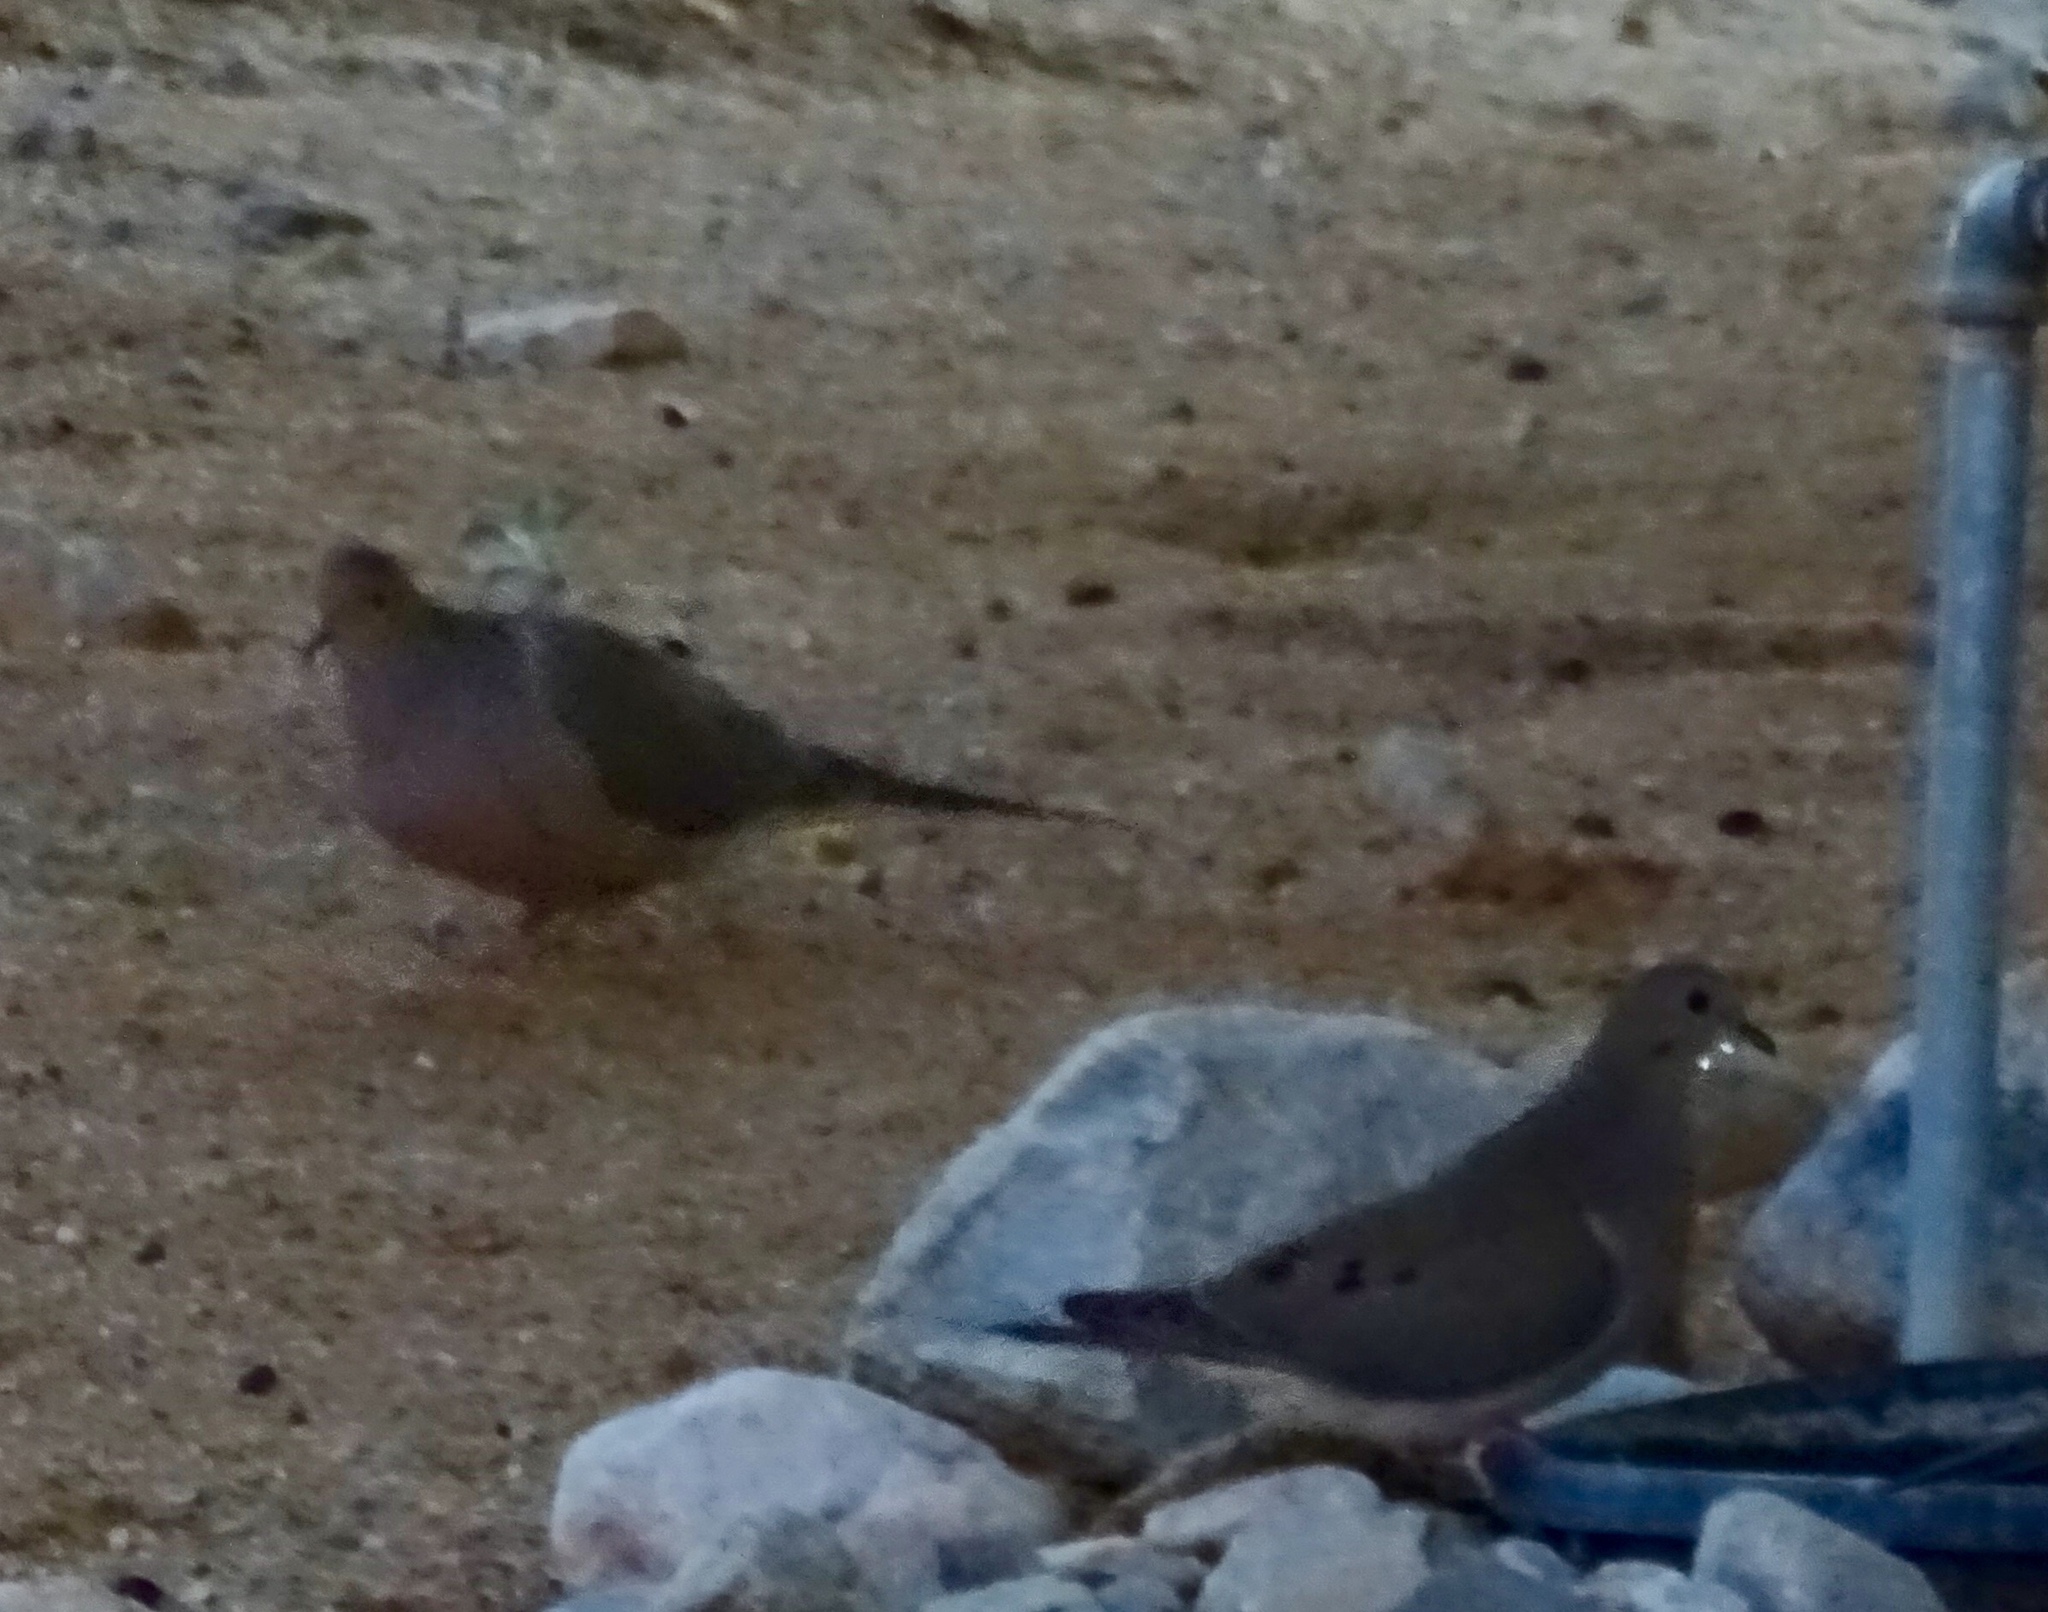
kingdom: Animalia
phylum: Chordata
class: Aves
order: Columbiformes
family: Columbidae
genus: Zenaida
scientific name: Zenaida macroura
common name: Mourning dove
